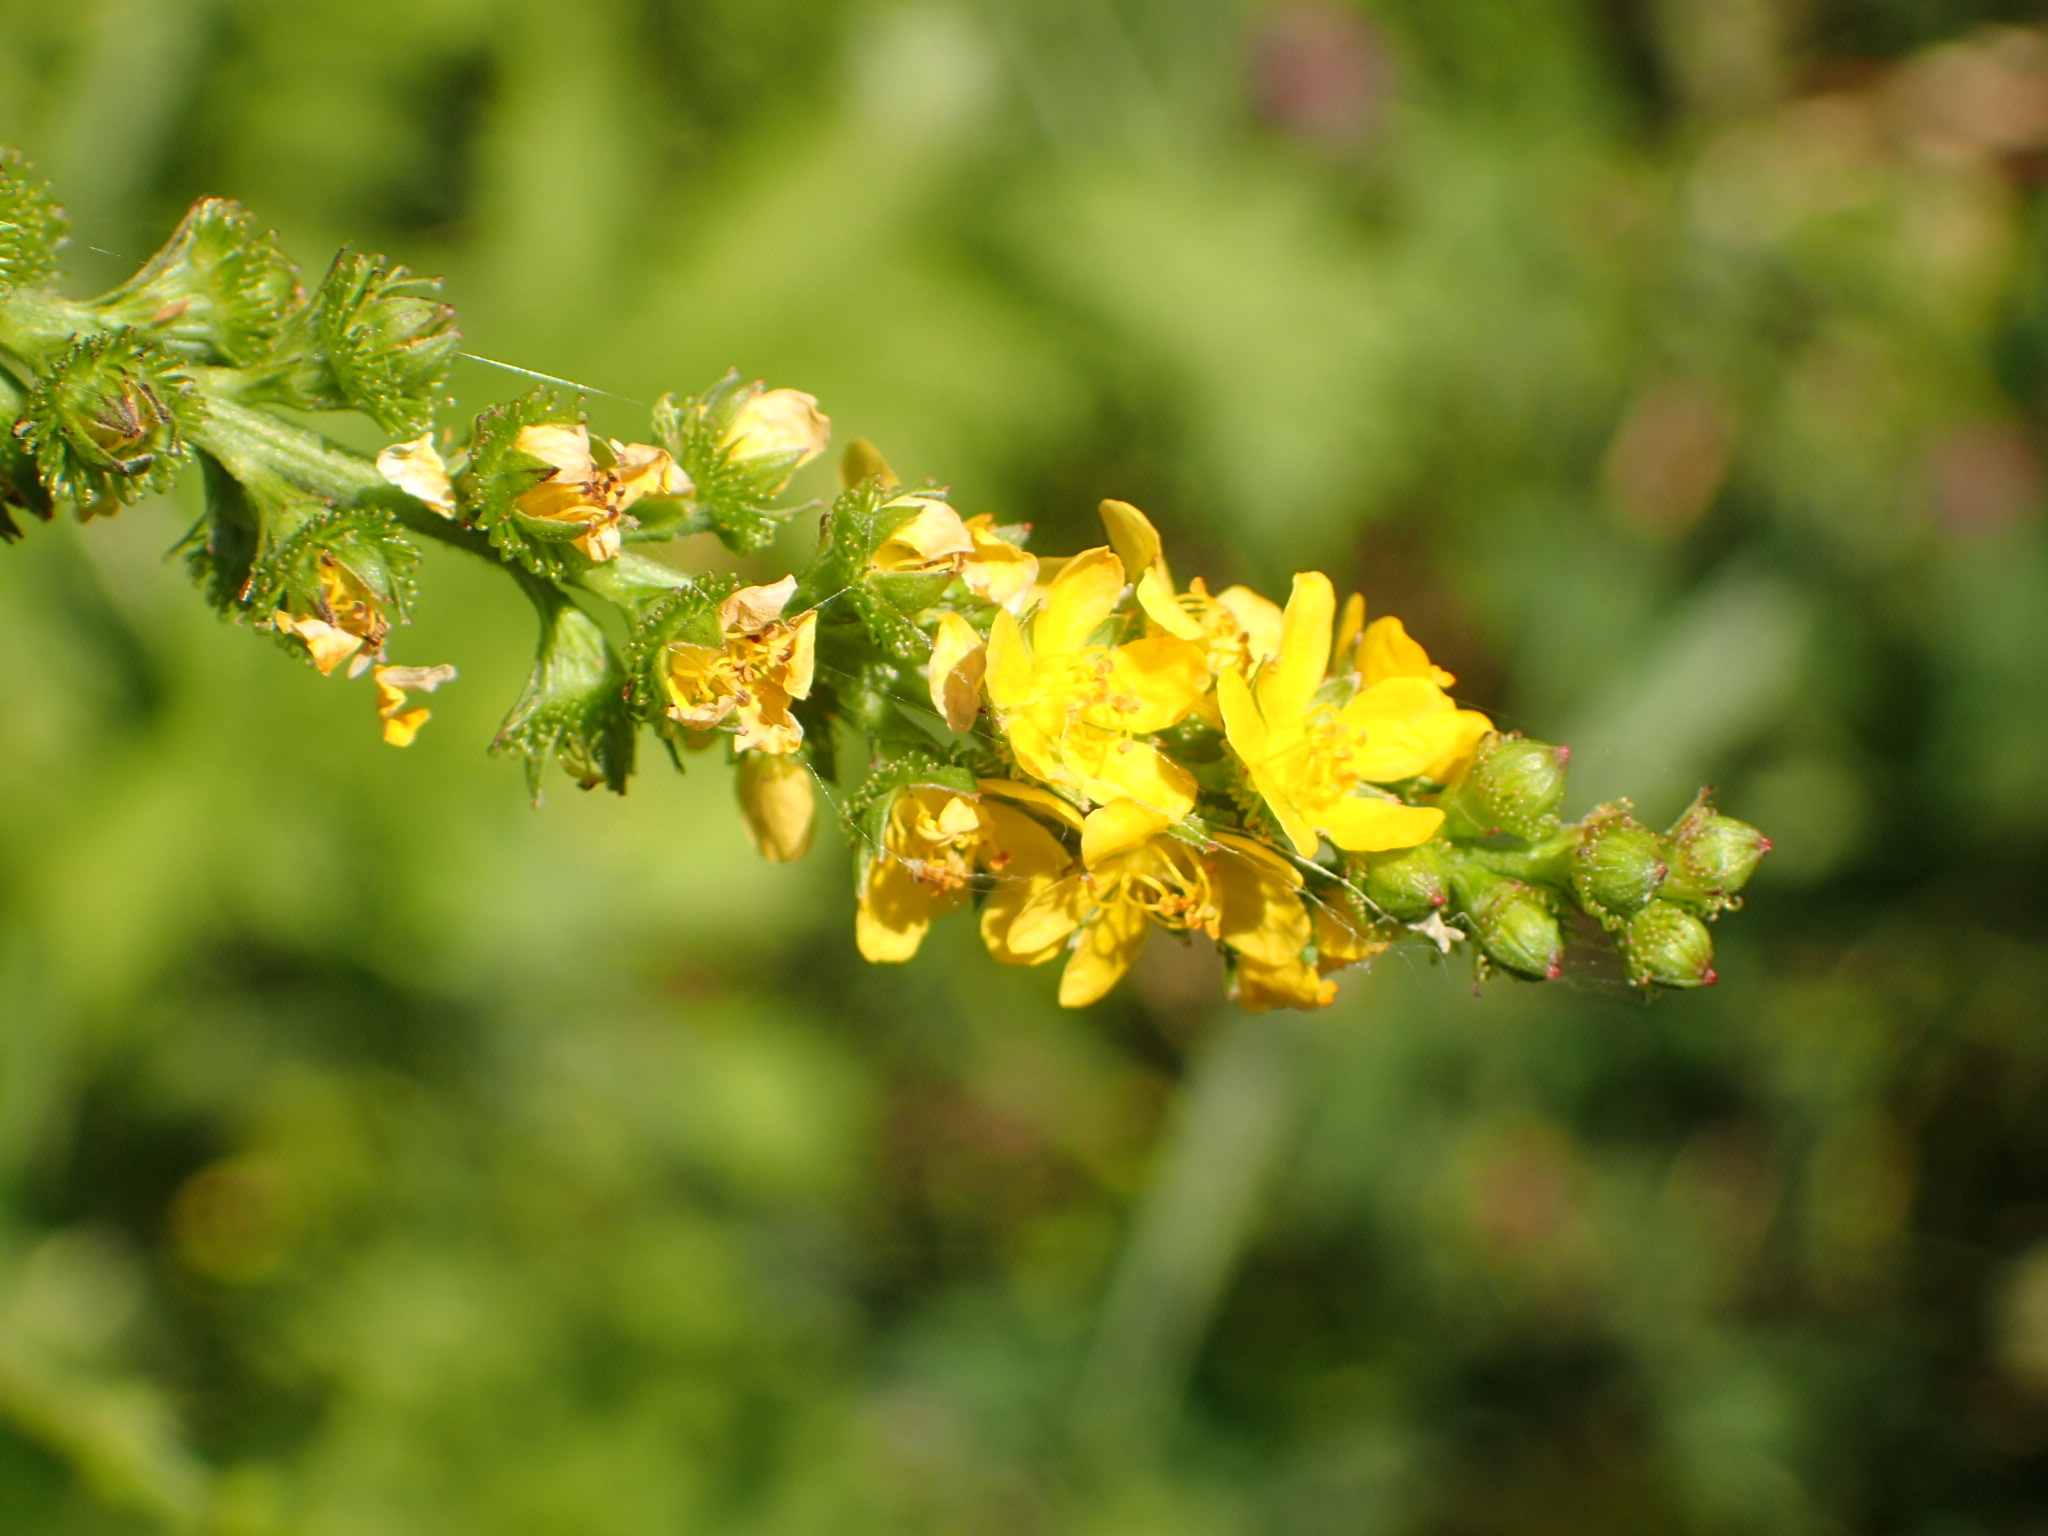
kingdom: Plantae
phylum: Tracheophyta
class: Magnoliopsida
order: Rosales
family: Rosaceae
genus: Agrimonia
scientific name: Agrimonia striata
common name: Britton's agrimony
